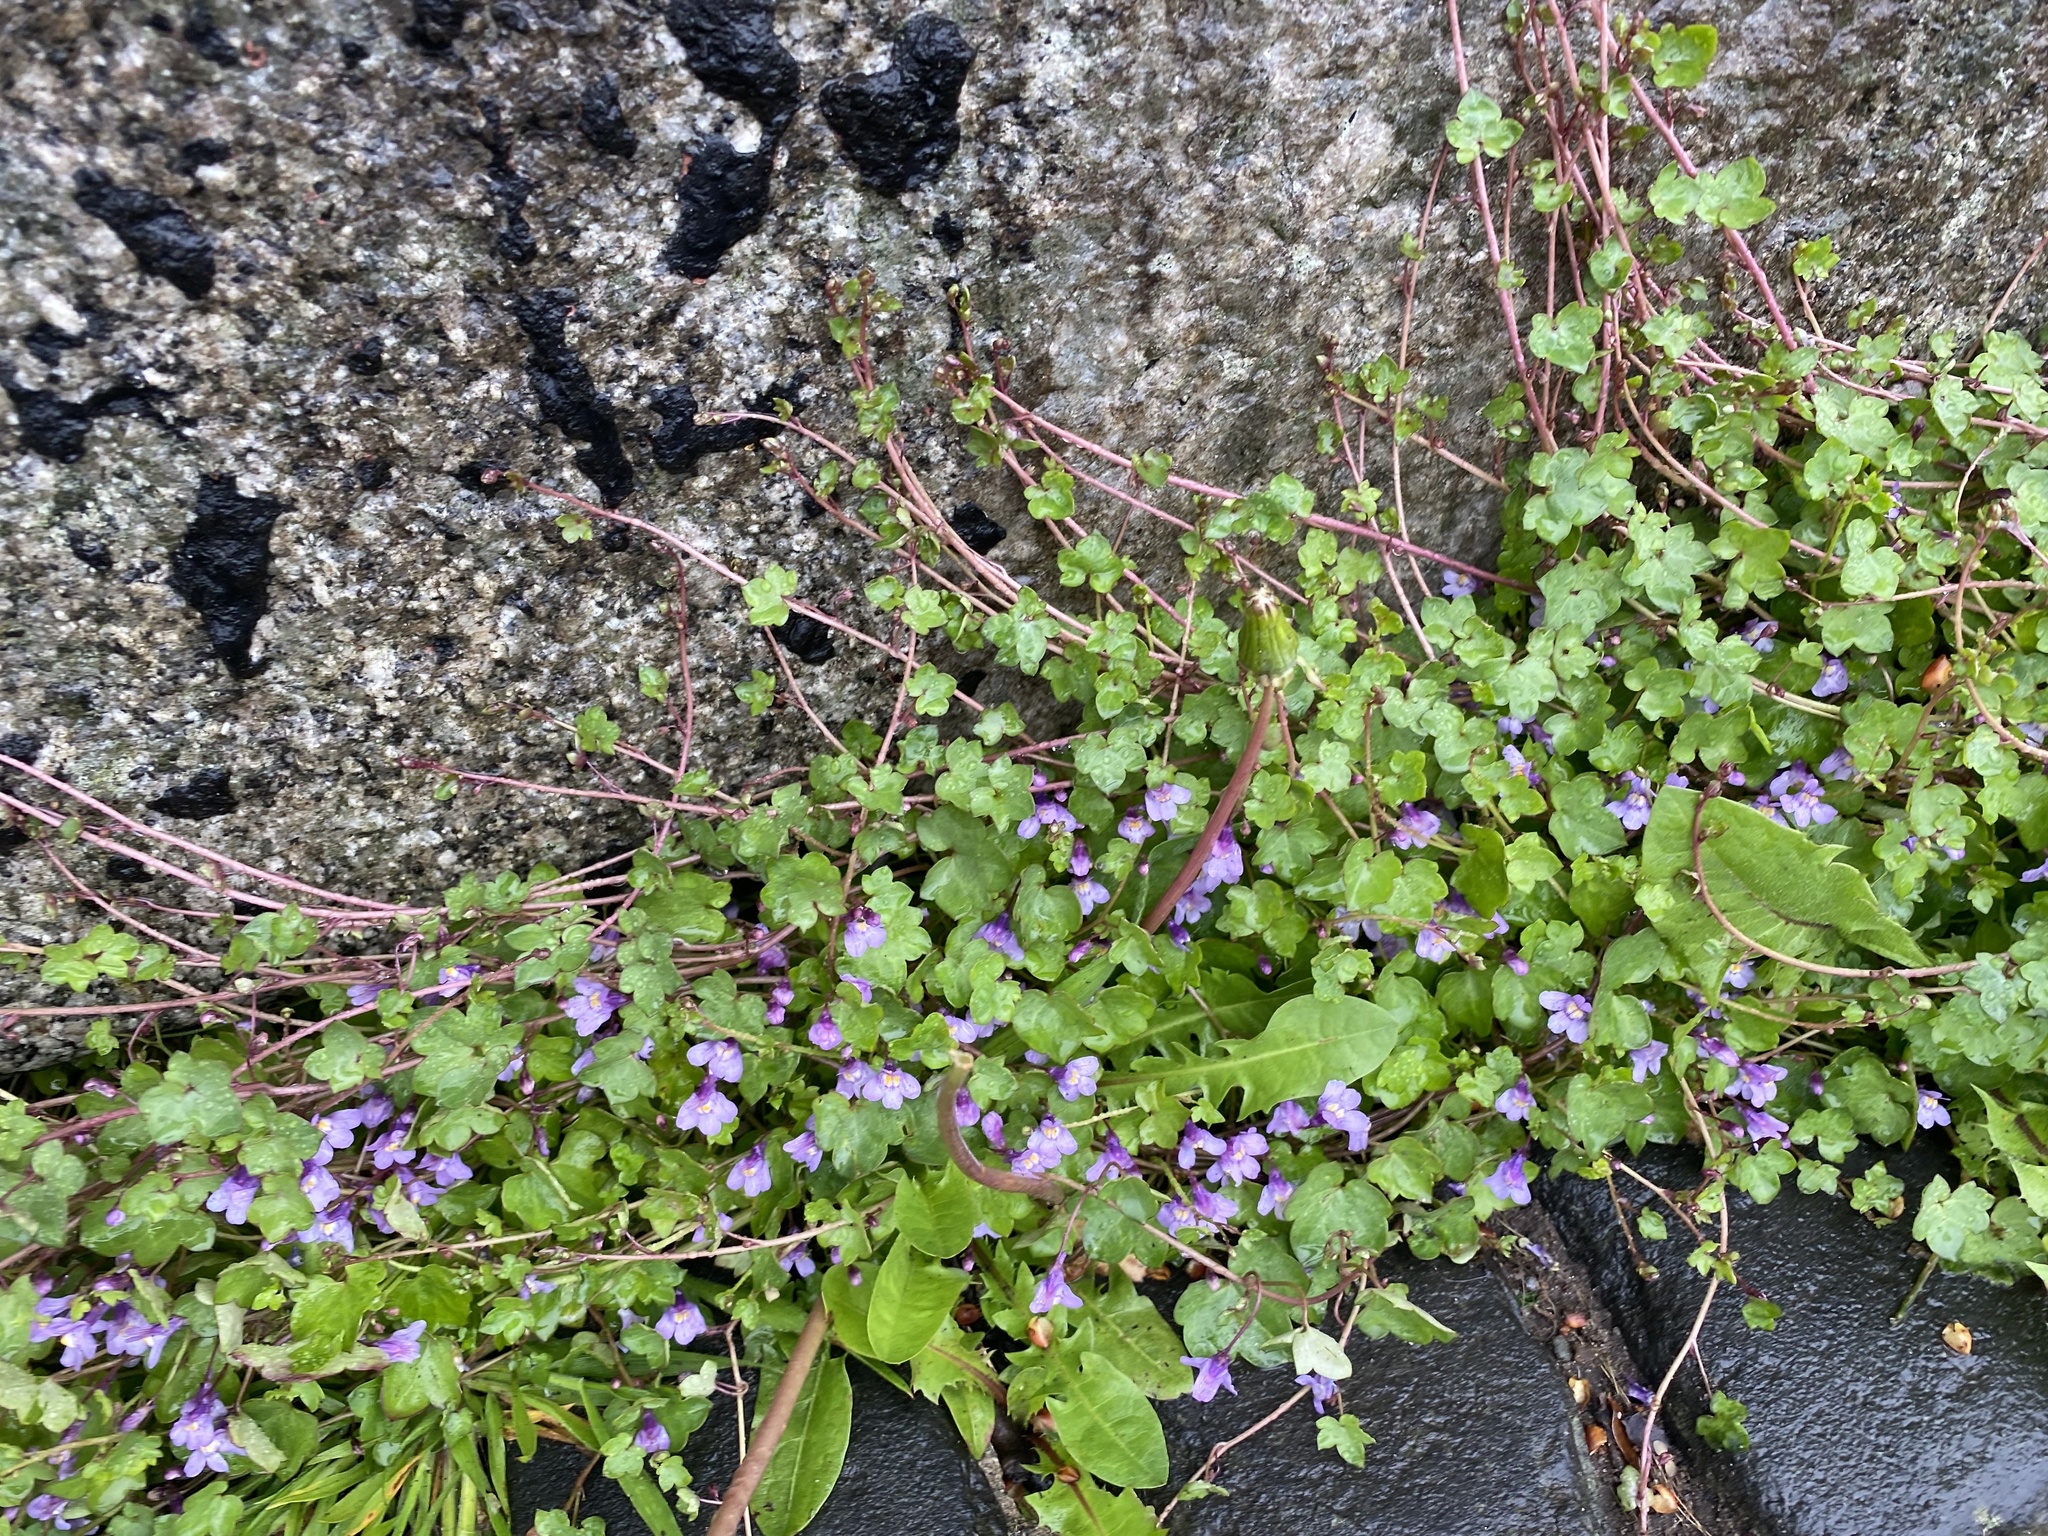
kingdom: Plantae
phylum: Tracheophyta
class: Magnoliopsida
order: Lamiales
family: Plantaginaceae
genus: Cymbalaria
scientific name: Cymbalaria muralis
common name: Ivy-leaved toadflax
